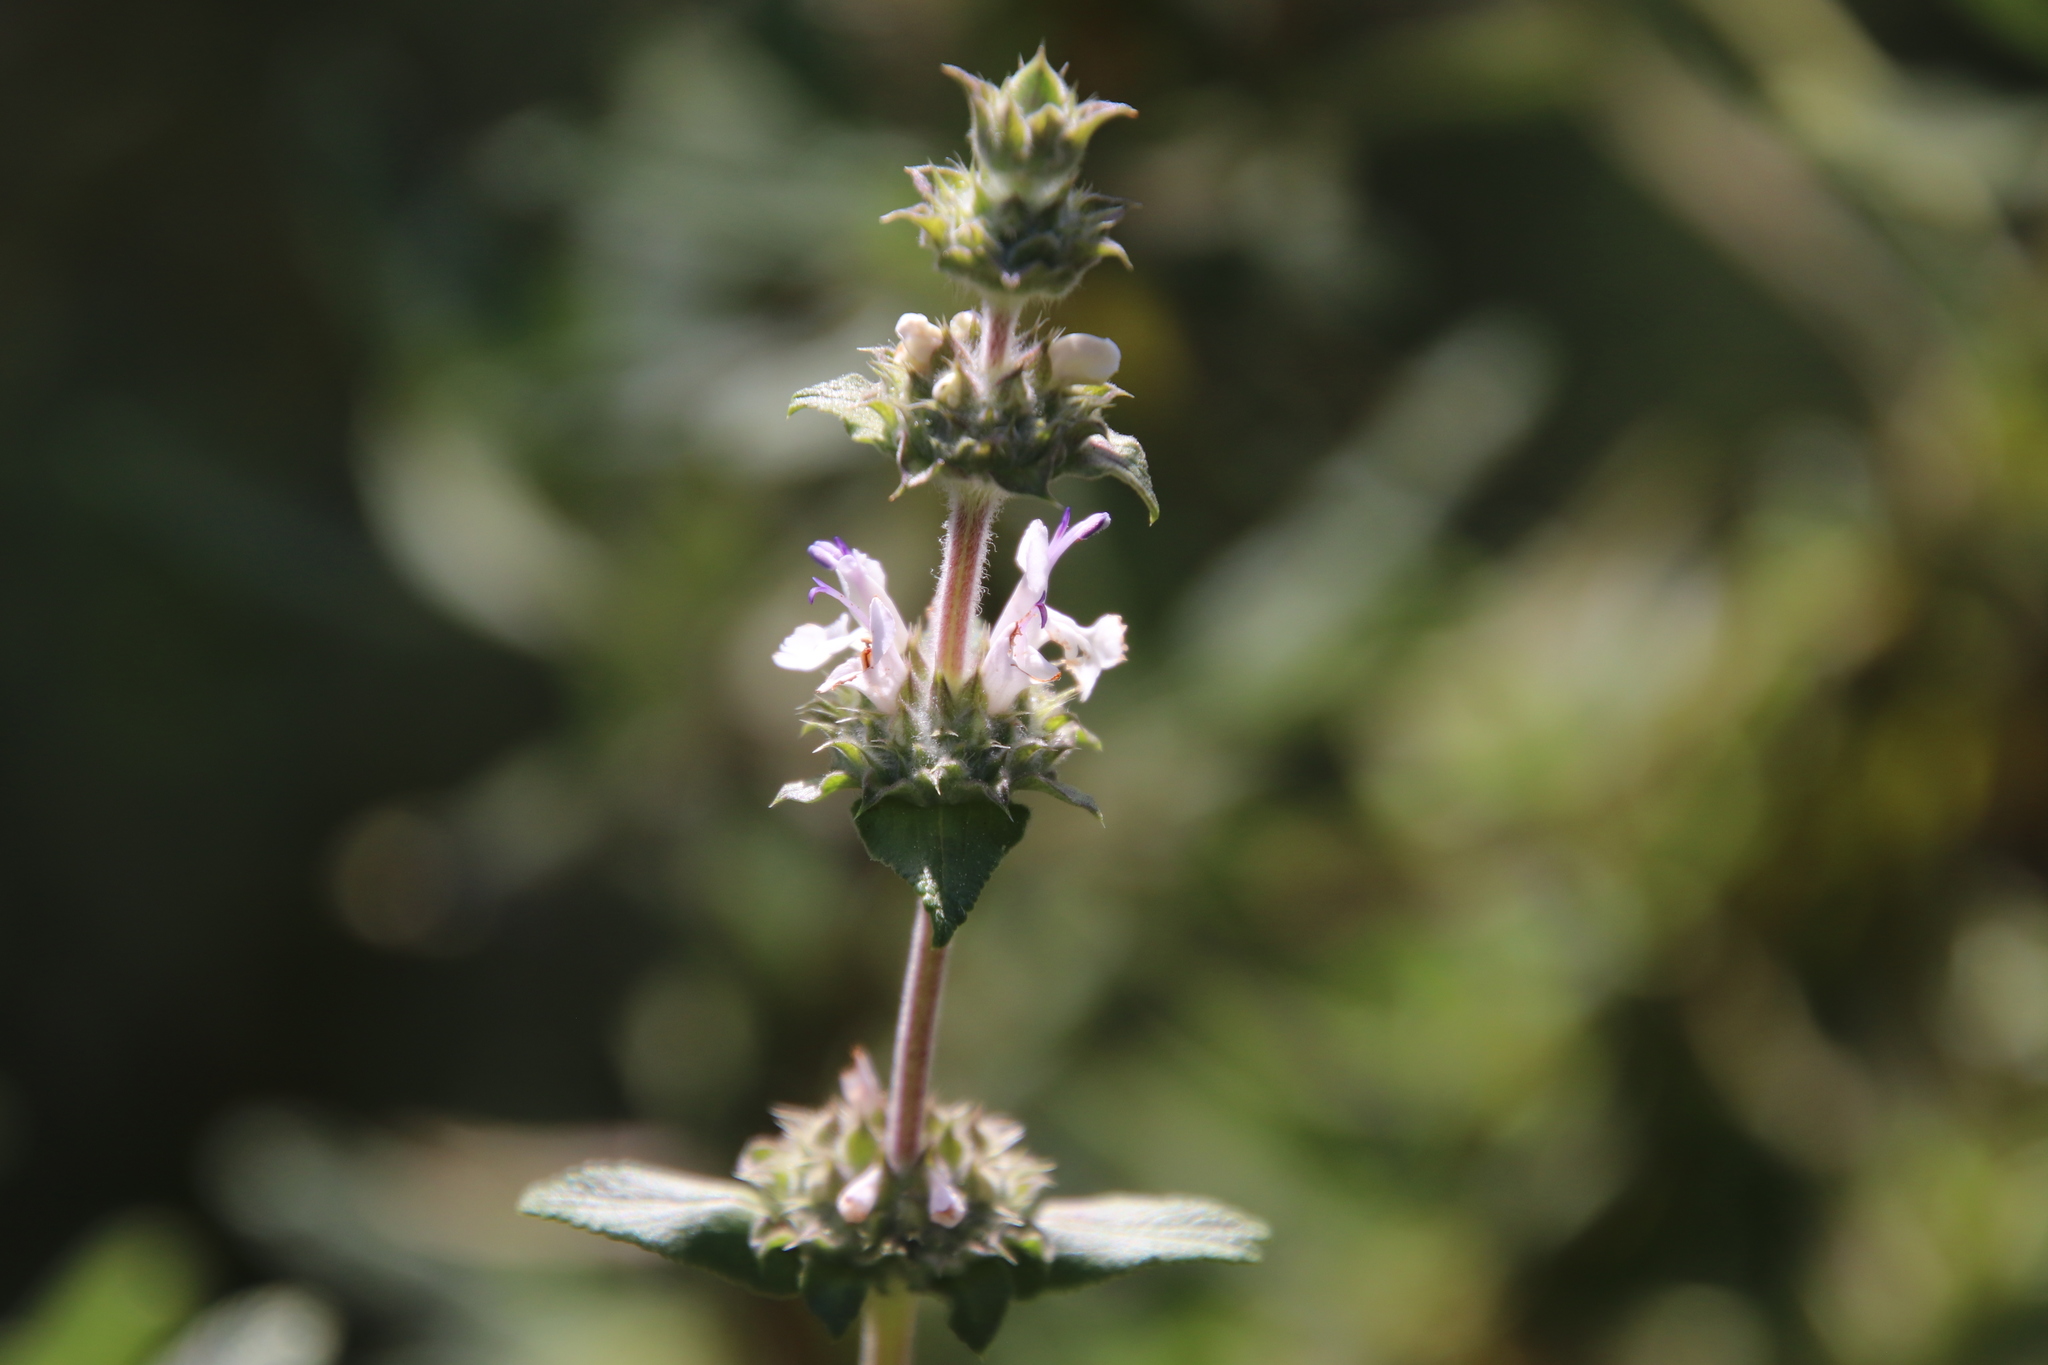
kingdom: Plantae
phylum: Tracheophyta
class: Magnoliopsida
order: Lamiales
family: Lamiaceae
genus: Salvia
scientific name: Salvia mellifera
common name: Black sage
